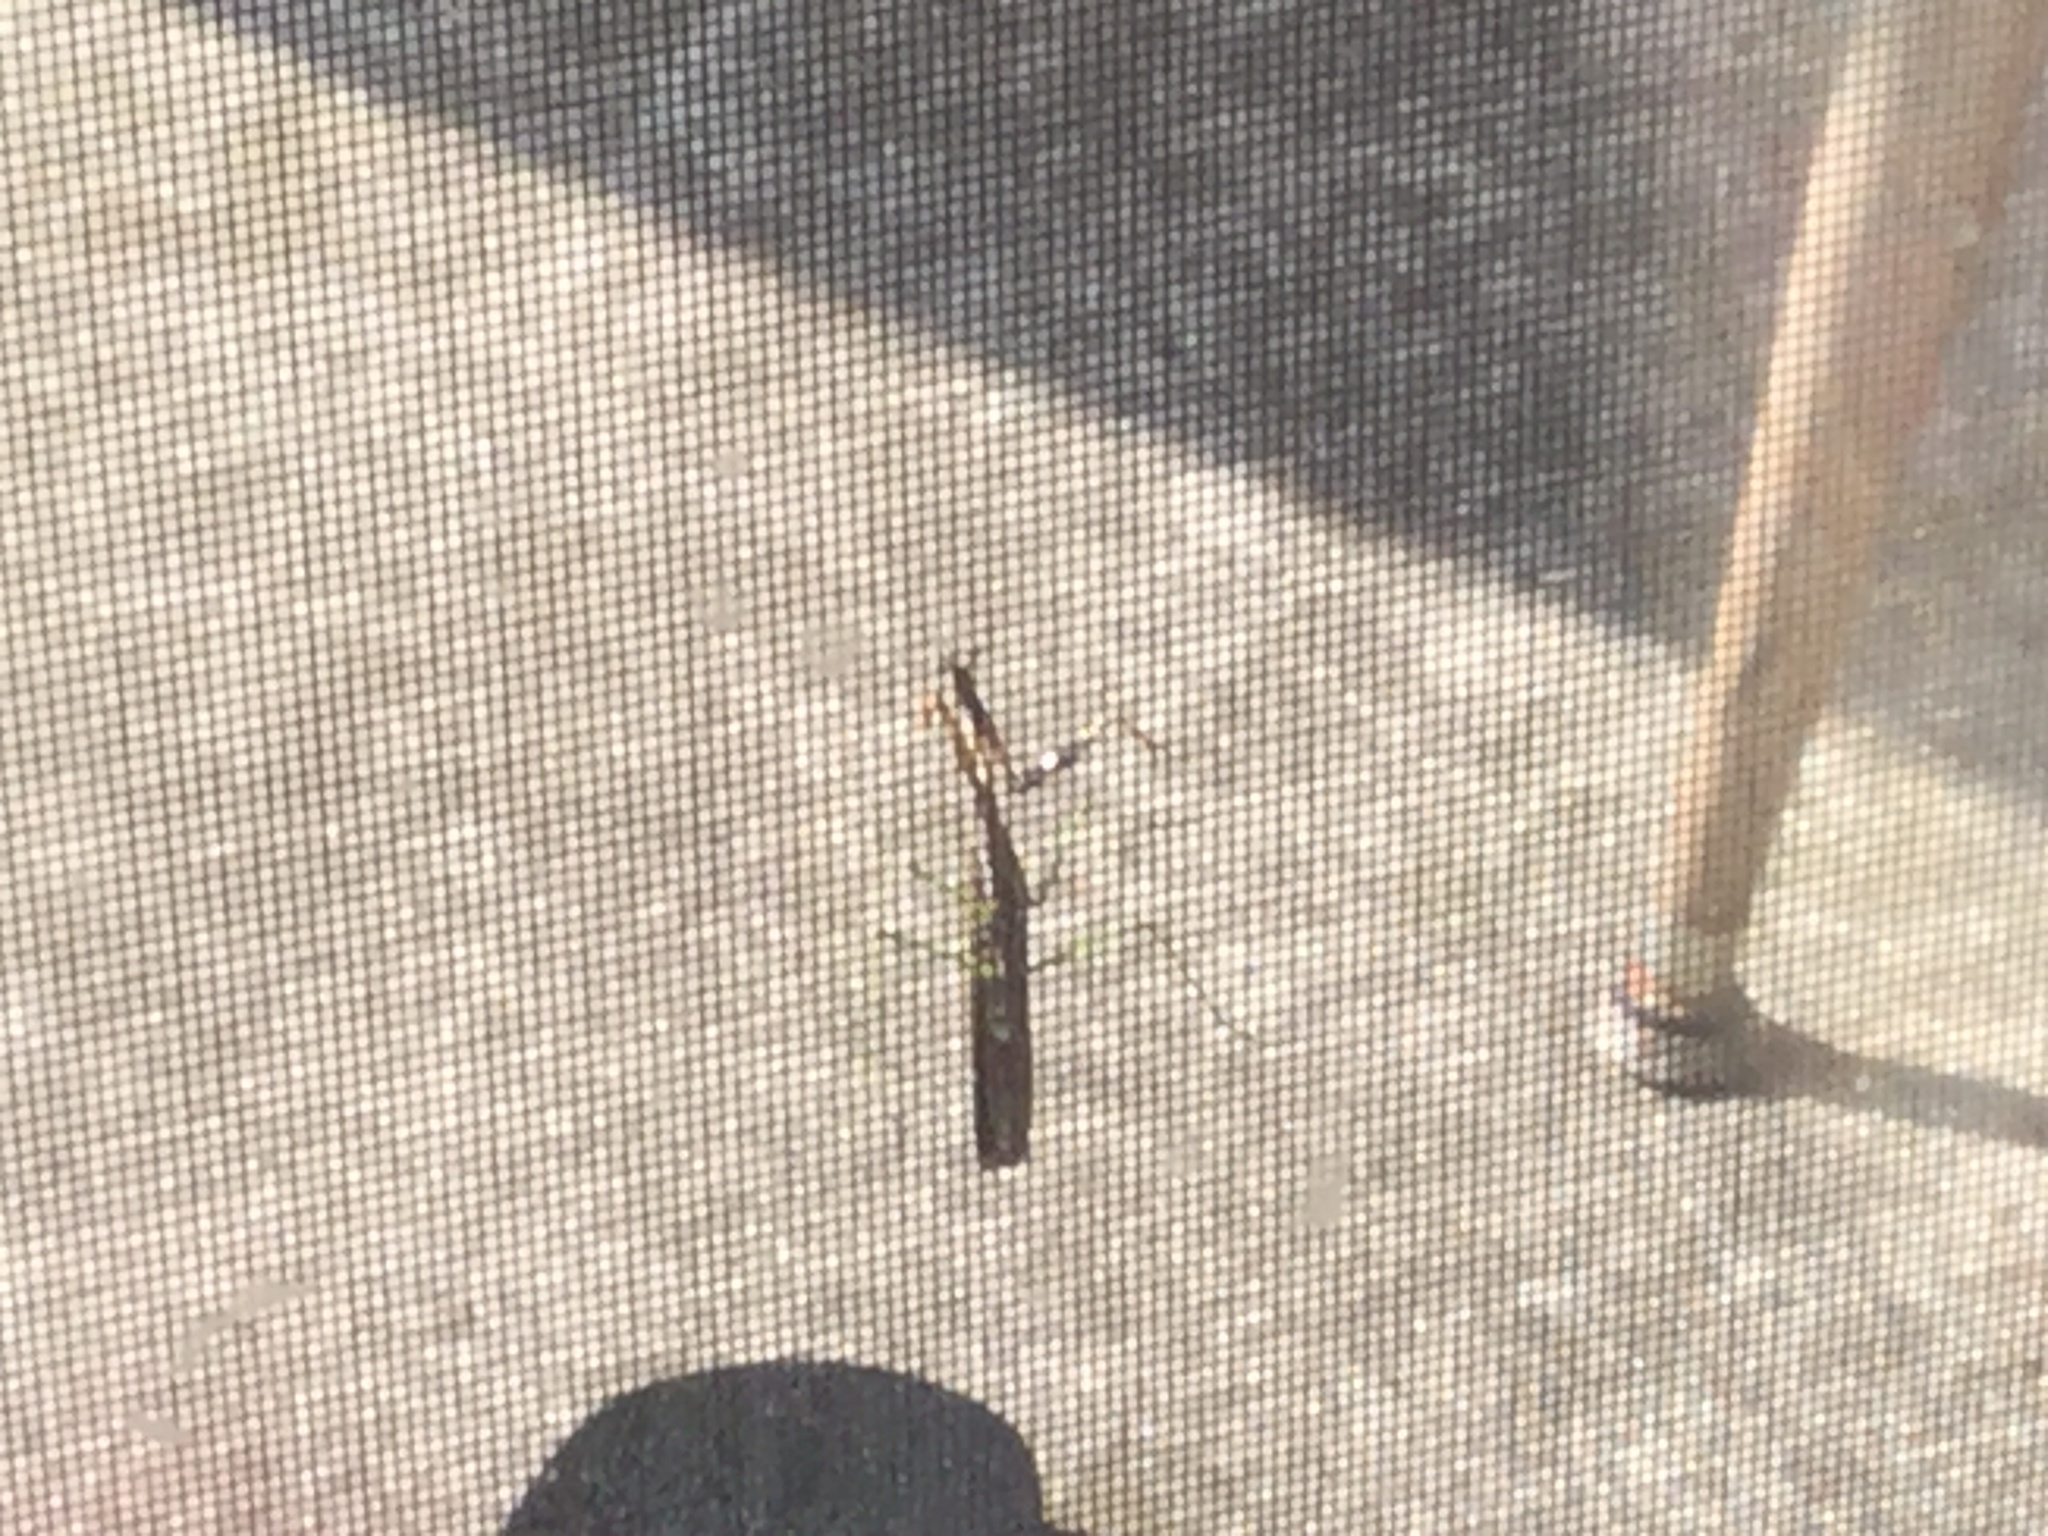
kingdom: Animalia
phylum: Arthropoda
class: Insecta
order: Mantodea
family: Mantidae
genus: Stagmomantis
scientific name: Stagmomantis carolina
